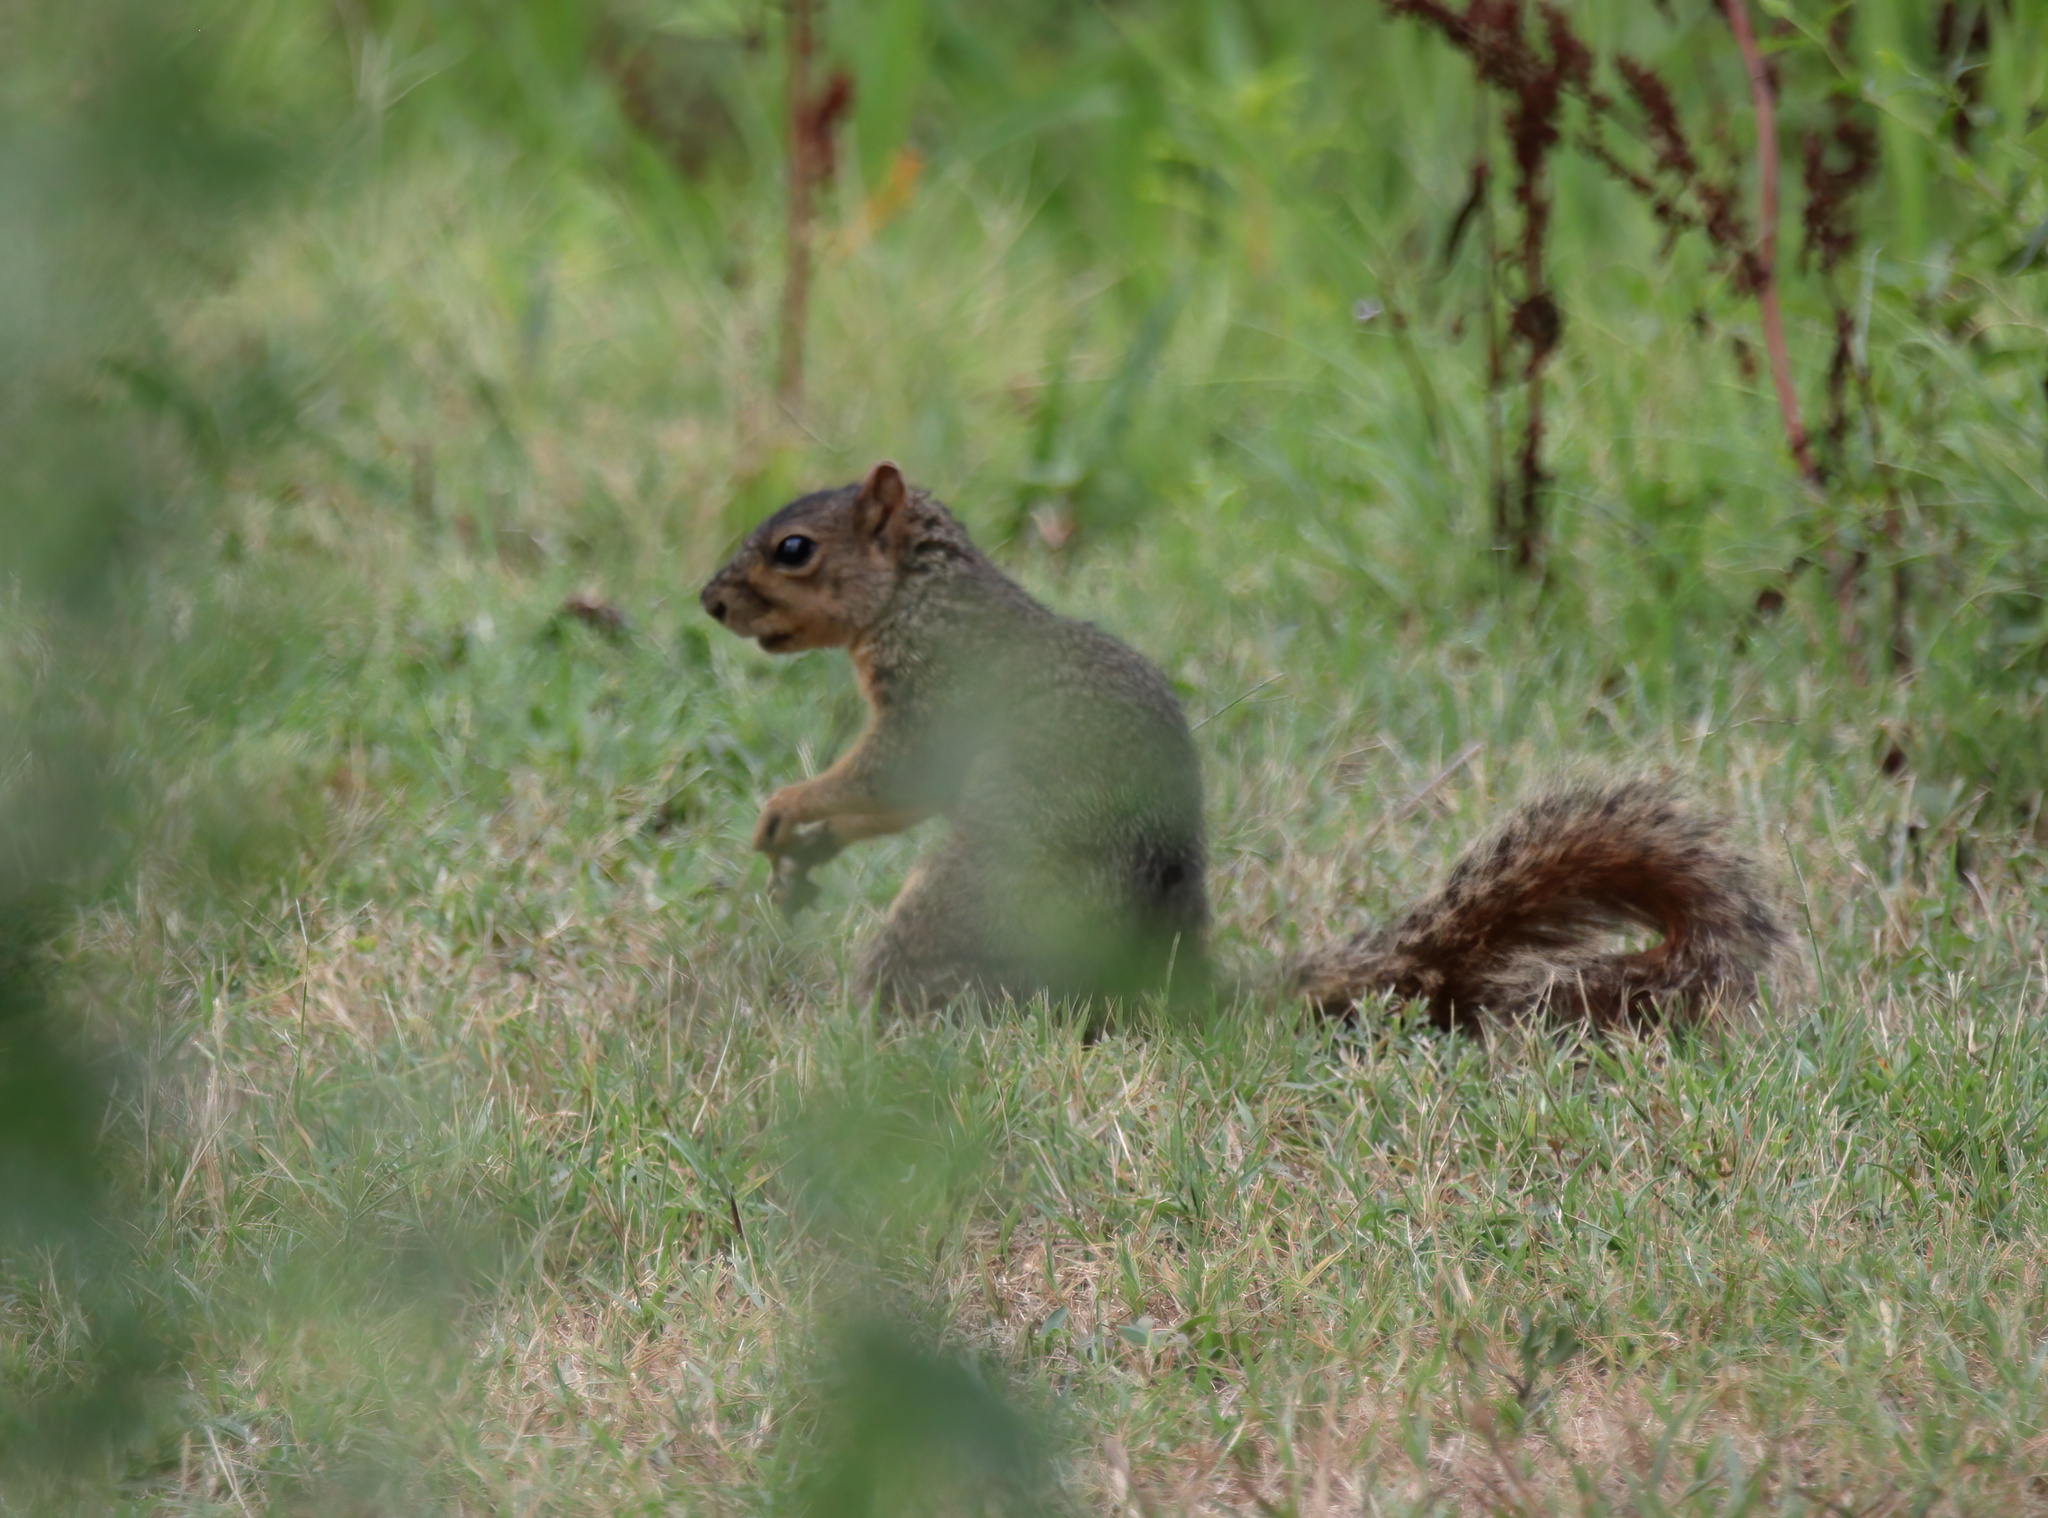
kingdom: Animalia
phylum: Chordata
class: Mammalia
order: Rodentia
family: Sciuridae
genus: Sciurus
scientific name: Sciurus carolinensis
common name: Eastern gray squirrel
